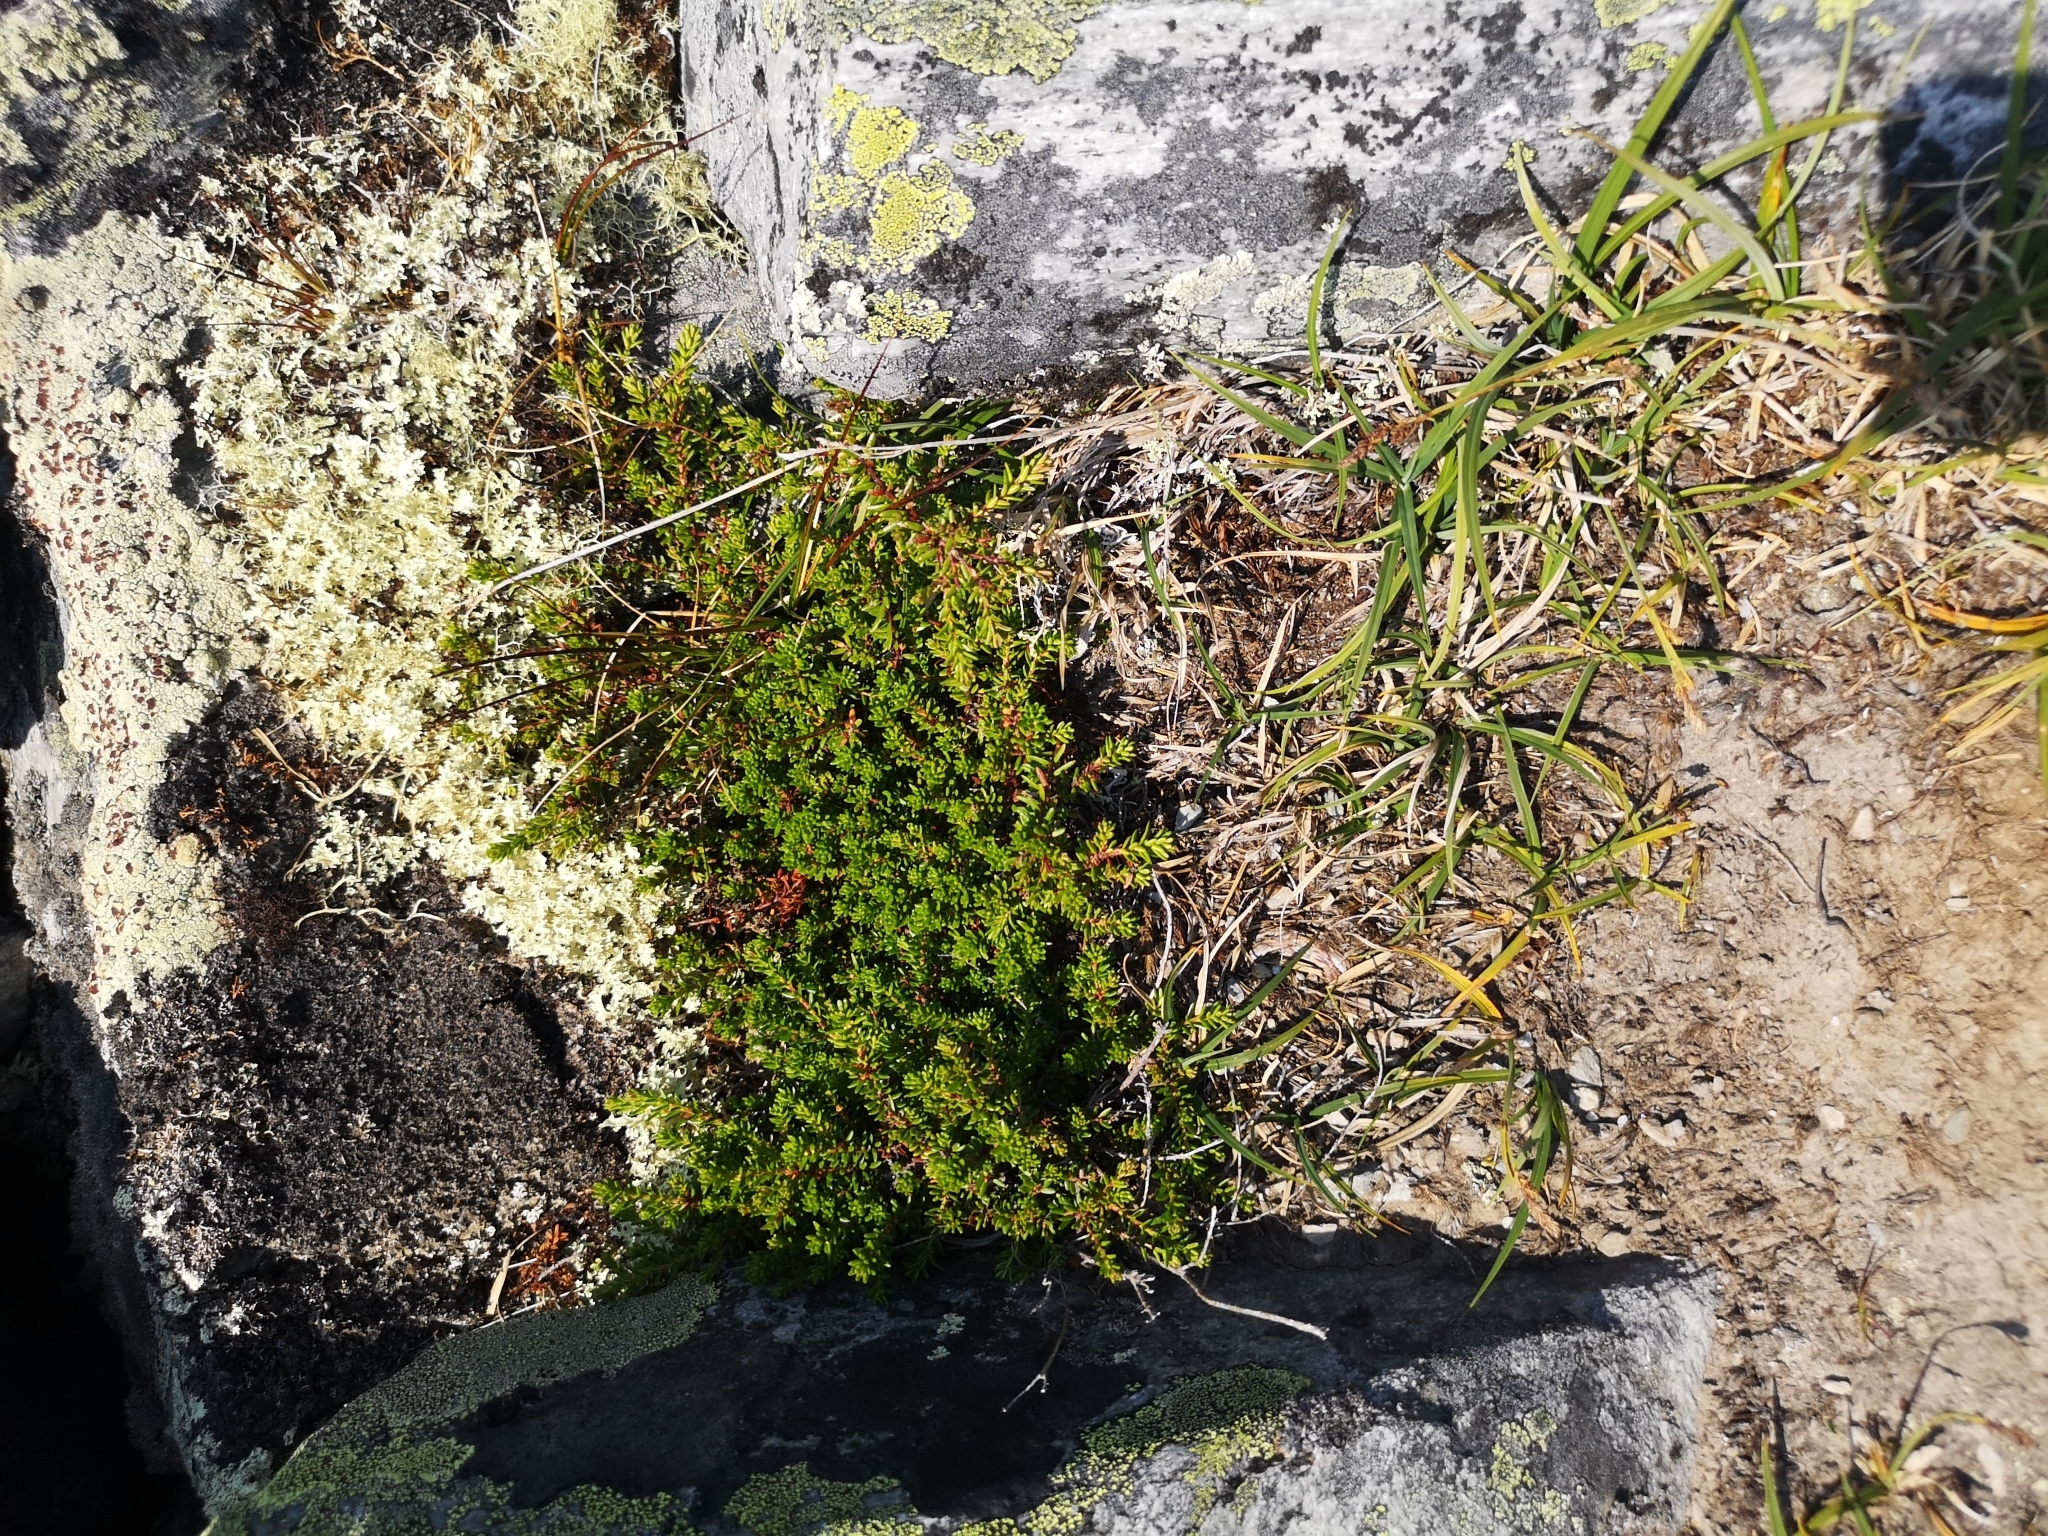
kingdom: Plantae
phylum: Tracheophyta
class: Magnoliopsida
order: Ericales
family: Ericaceae
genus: Empetrum
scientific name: Empetrum nigrum
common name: Black crowberry
